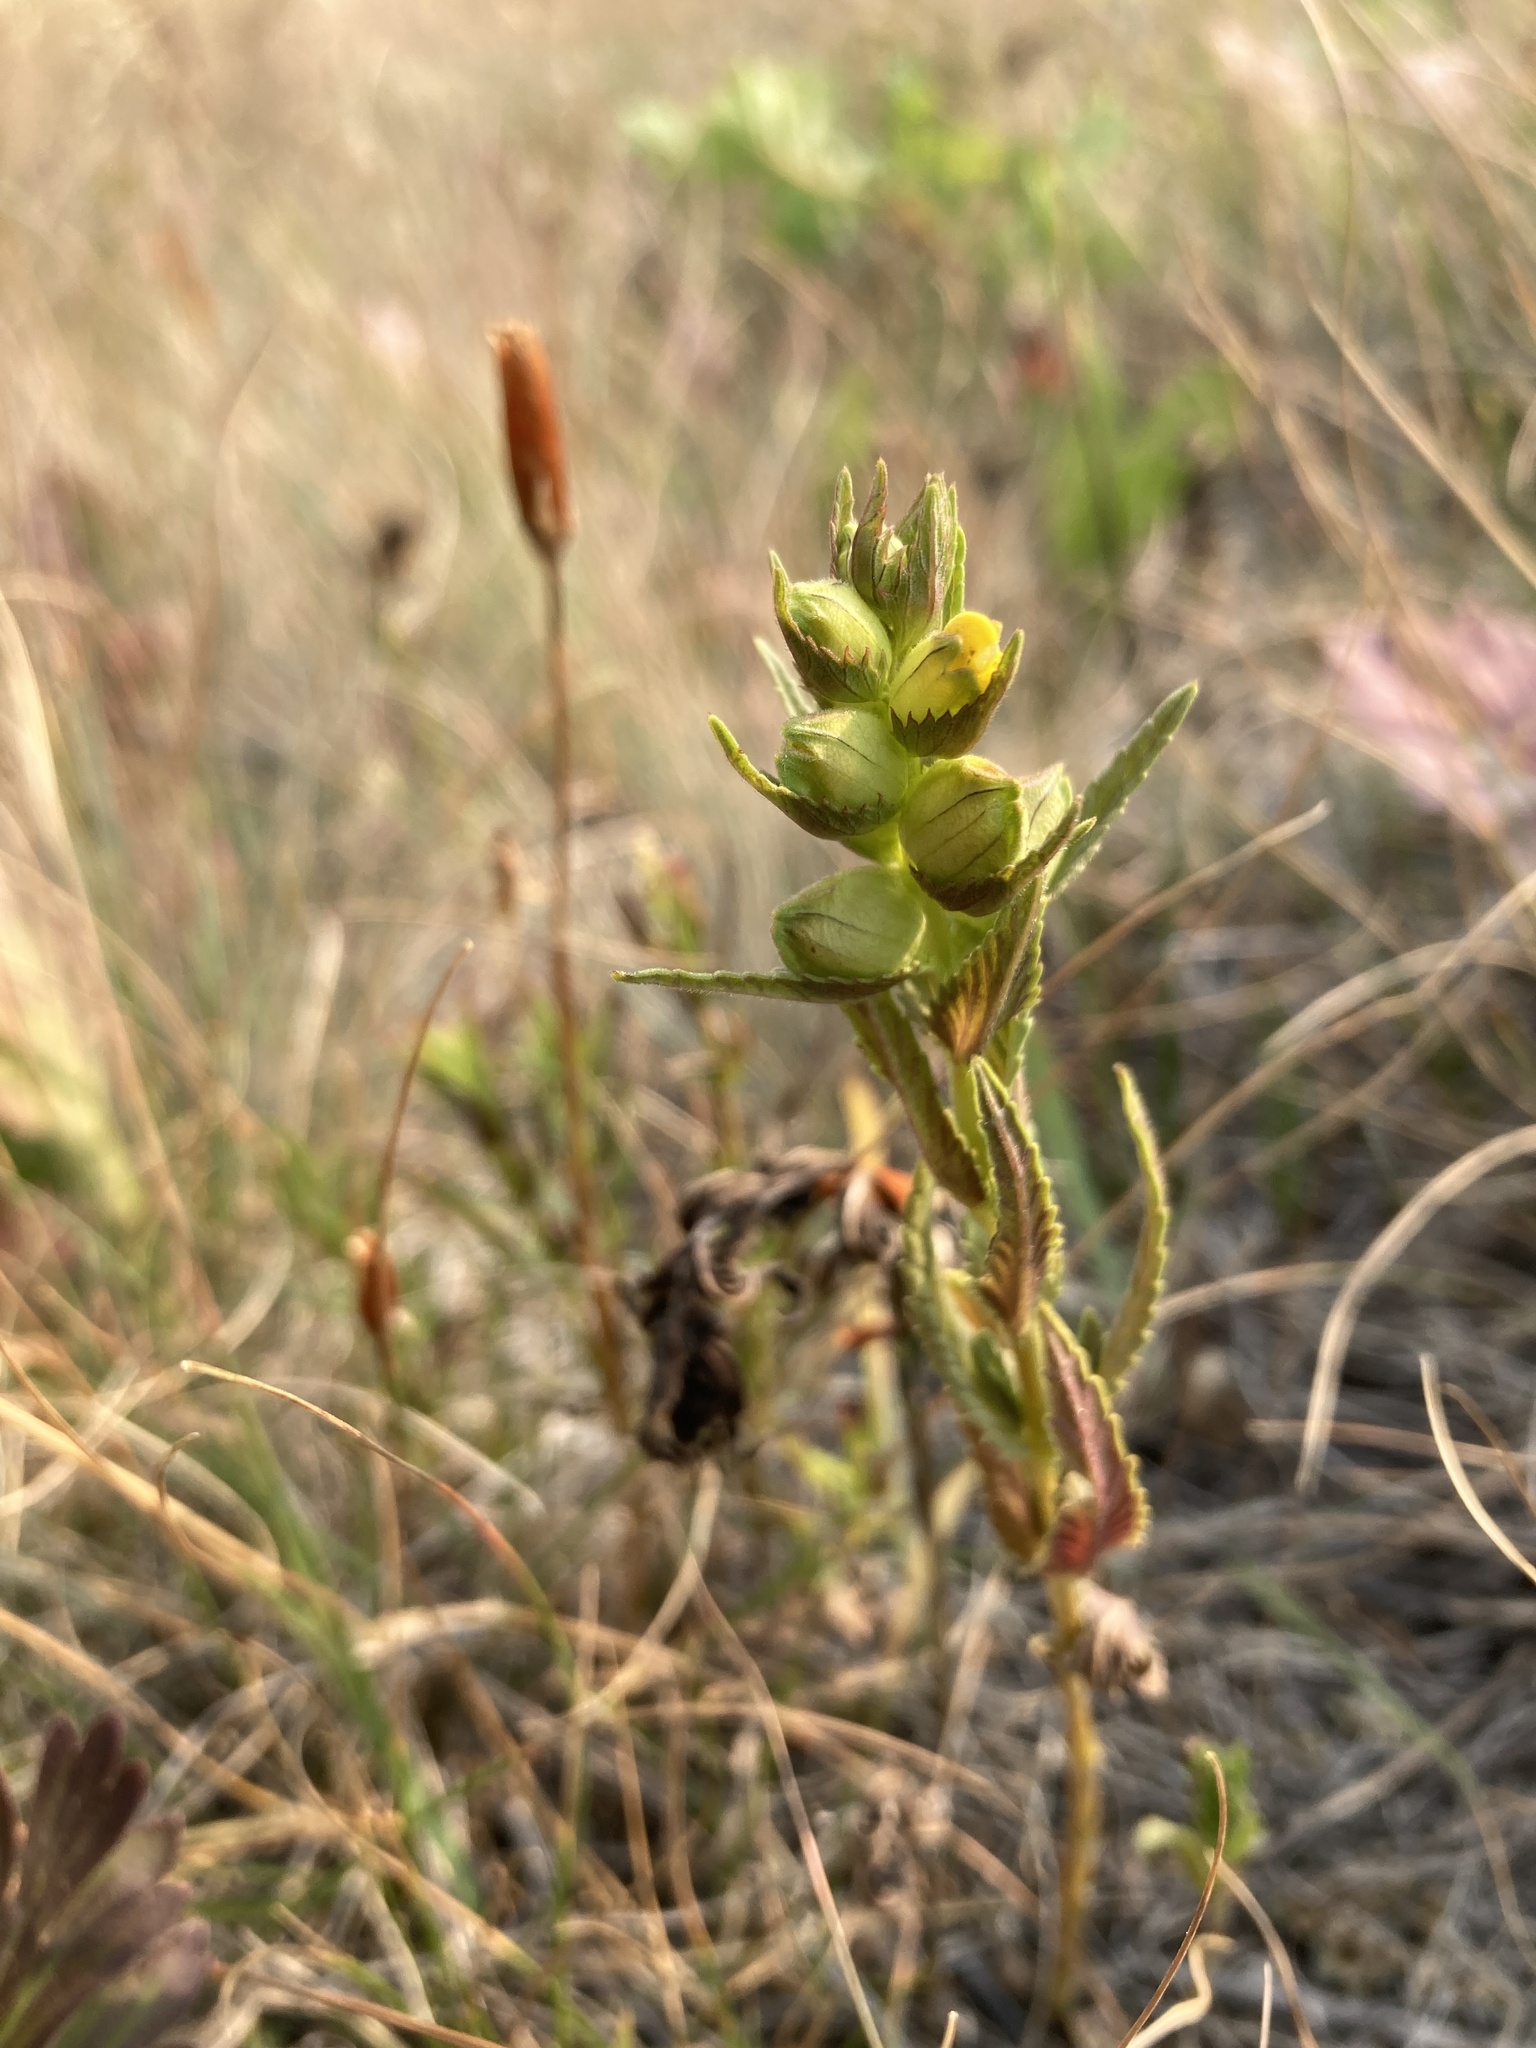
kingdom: Plantae
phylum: Tracheophyta
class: Magnoliopsida
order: Lamiales
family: Orobanchaceae
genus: Rhinanthus
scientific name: Rhinanthus groenlandicus
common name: Little yellow rattle
